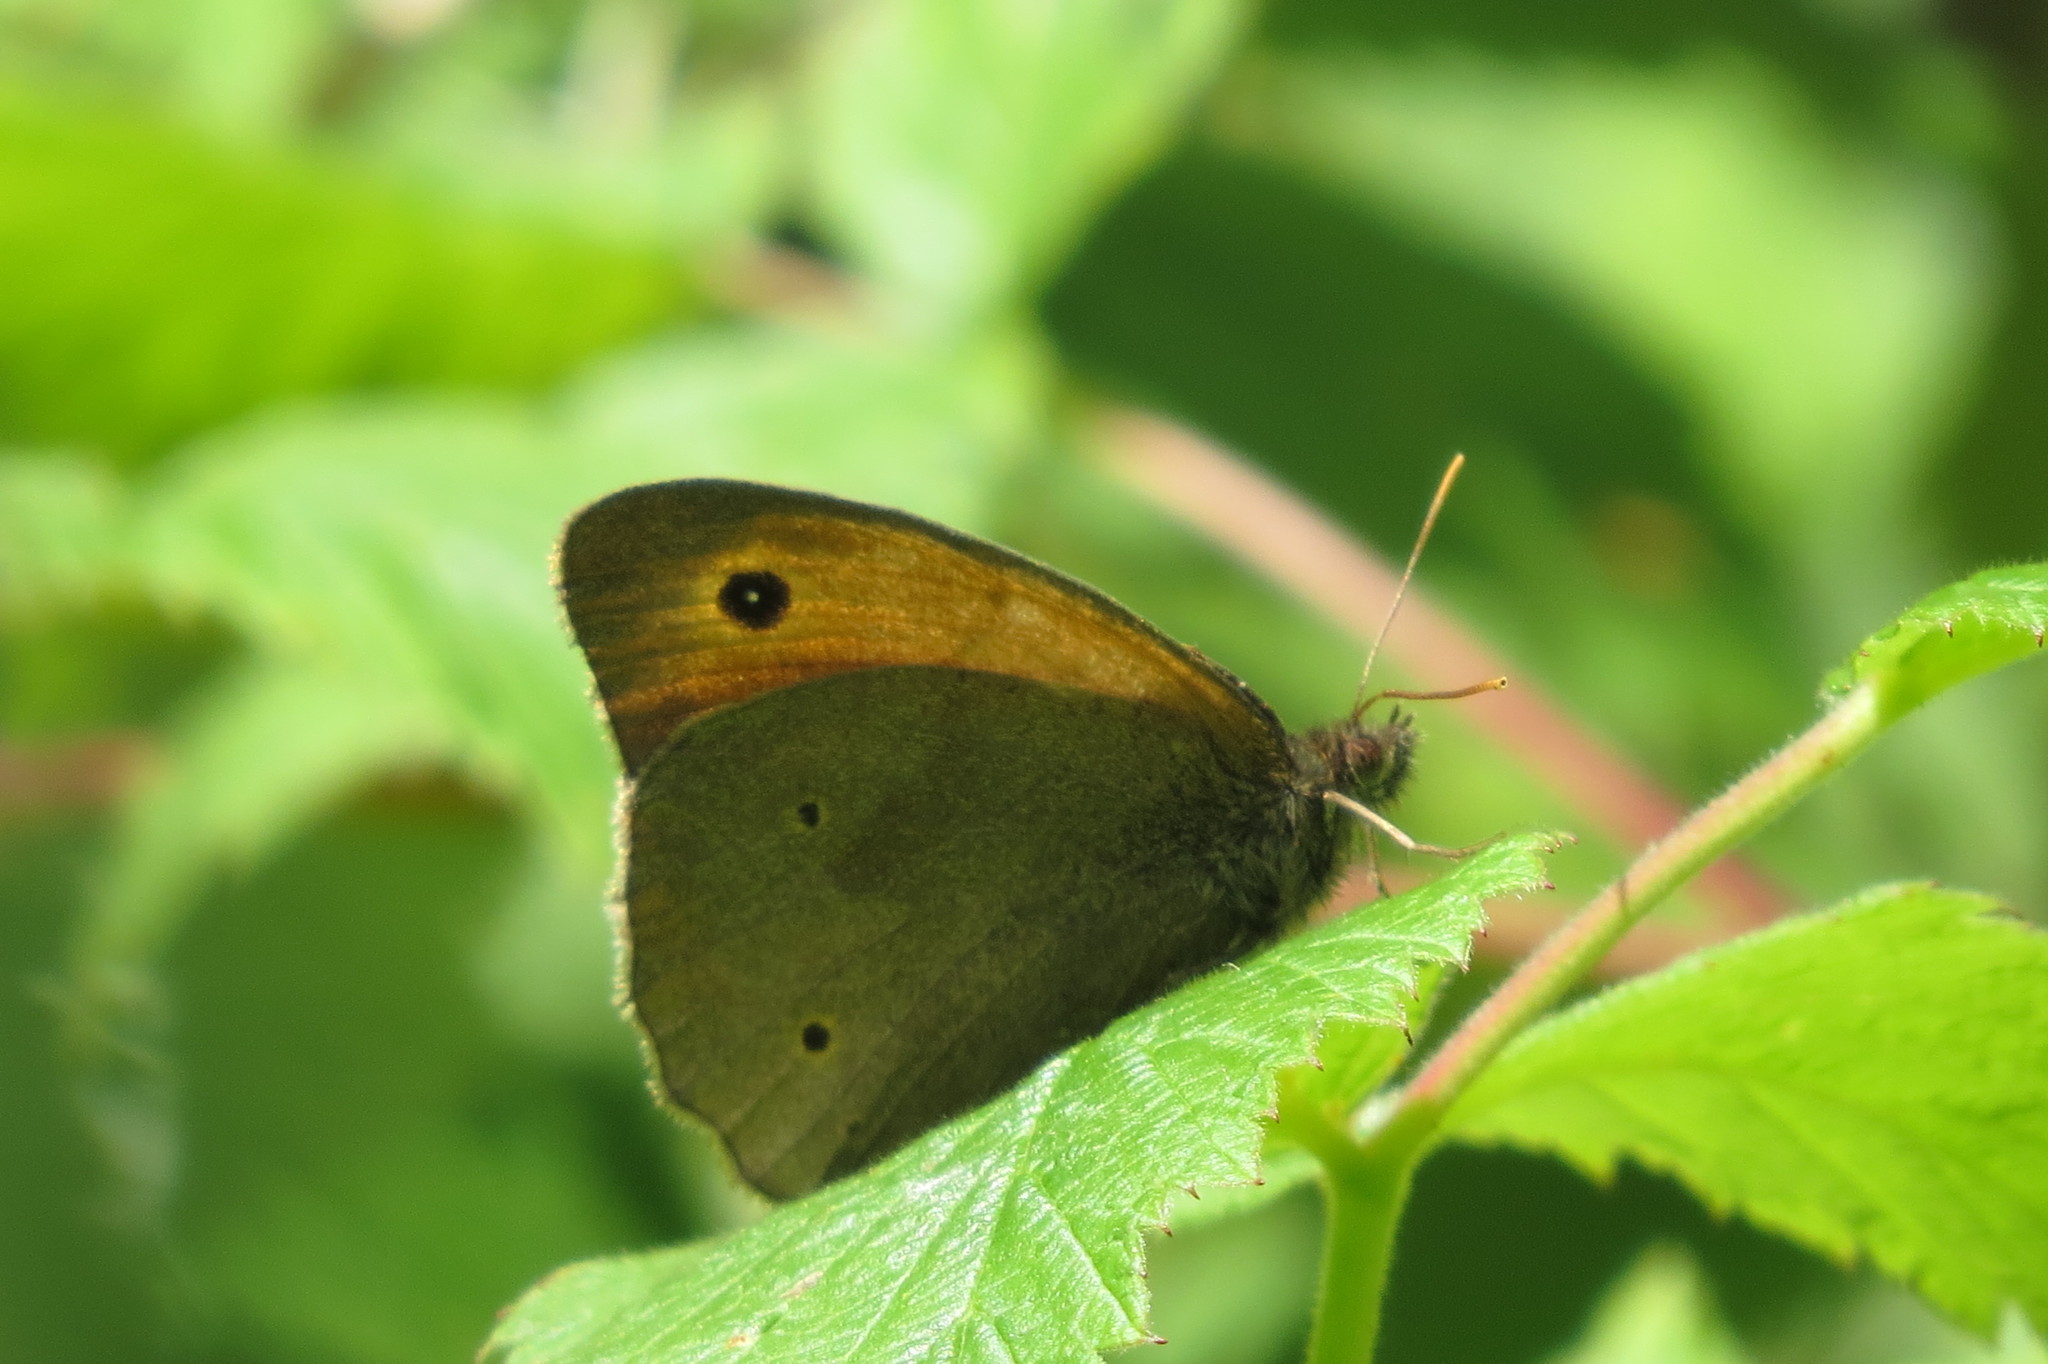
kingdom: Animalia
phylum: Arthropoda
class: Insecta
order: Lepidoptera
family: Nymphalidae
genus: Maniola
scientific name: Maniola jurtina
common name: Meadow brown
